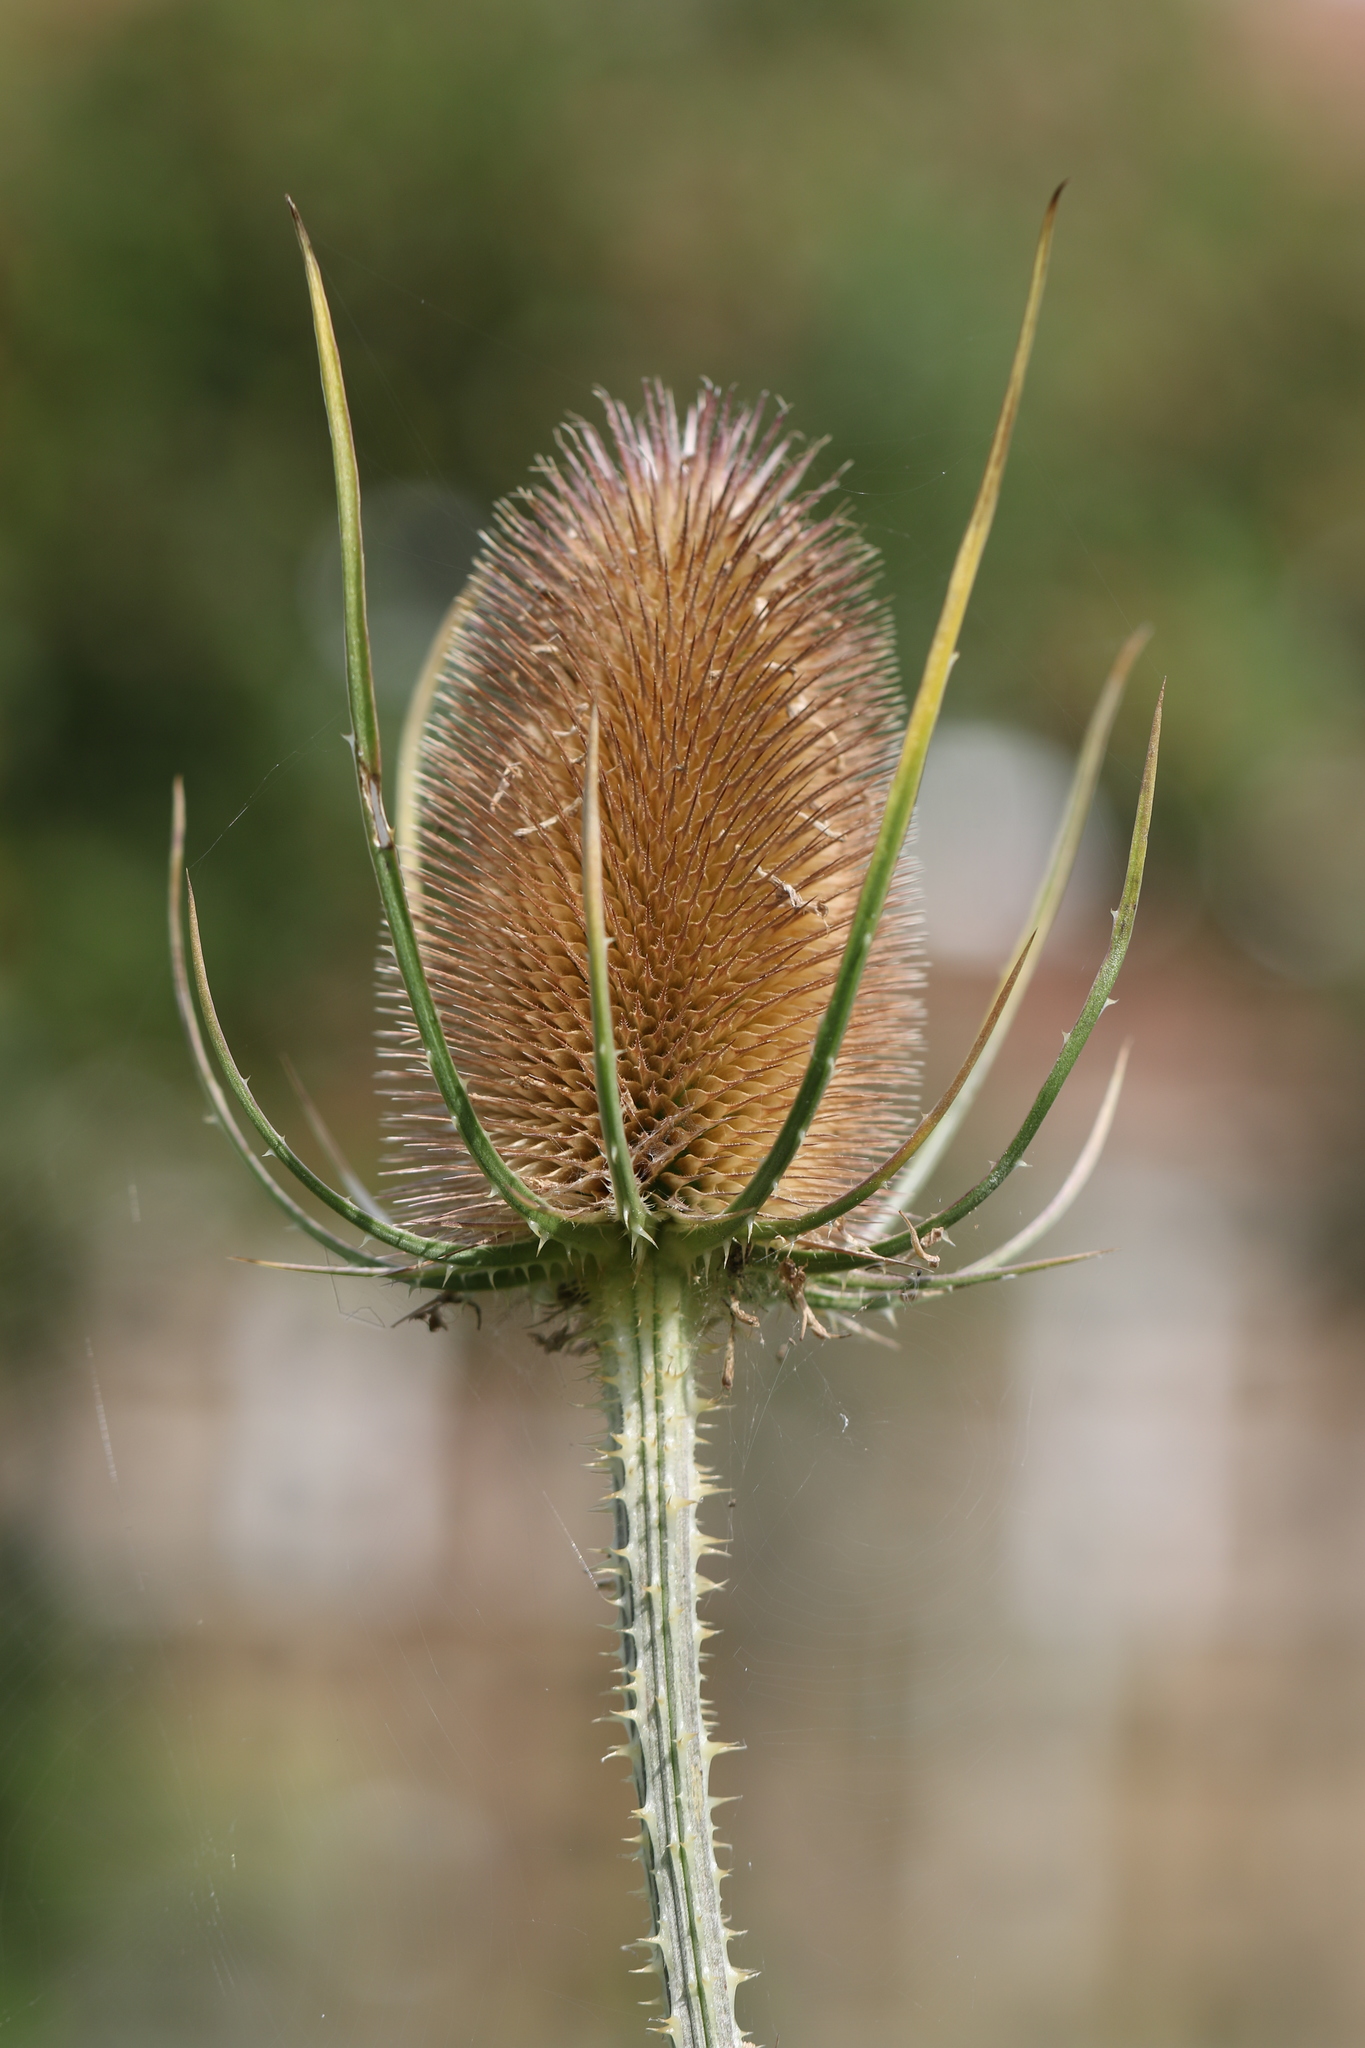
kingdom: Plantae
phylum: Tracheophyta
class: Magnoliopsida
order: Dipsacales
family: Caprifoliaceae
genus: Dipsacus
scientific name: Dipsacus fullonum
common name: Teasel
